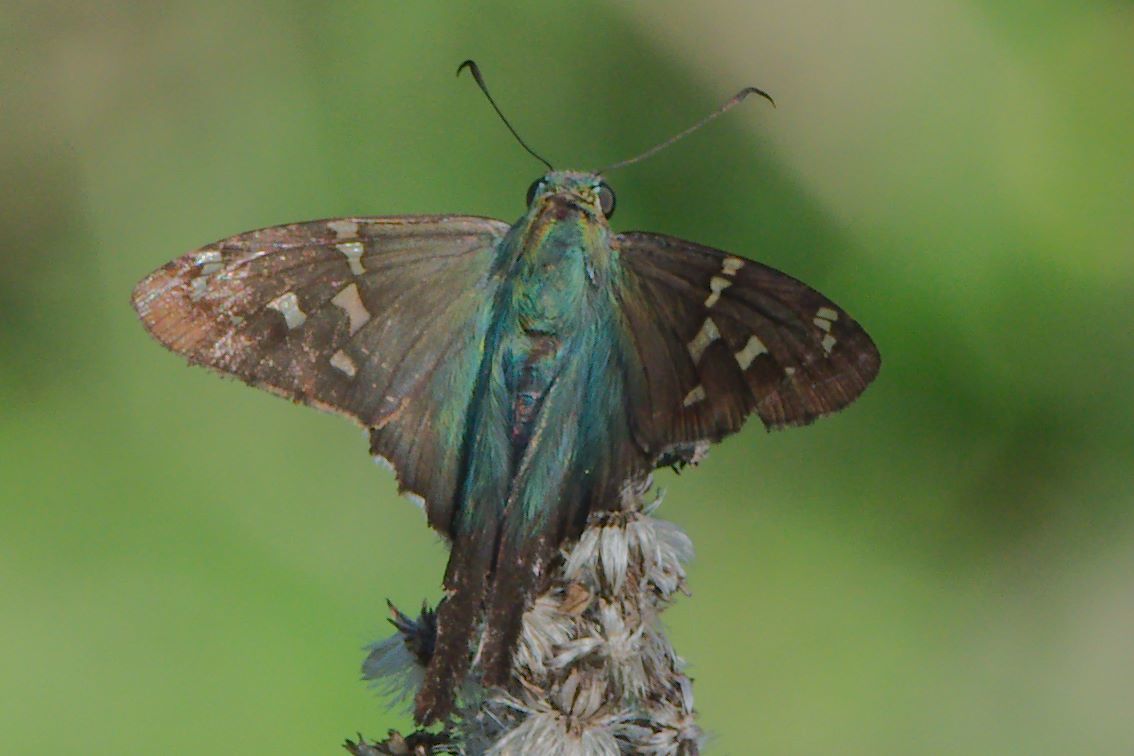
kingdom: Animalia
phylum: Arthropoda
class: Insecta
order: Lepidoptera
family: Hesperiidae
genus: Urbanus
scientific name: Urbanus proteus
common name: Long-tailed skipper
